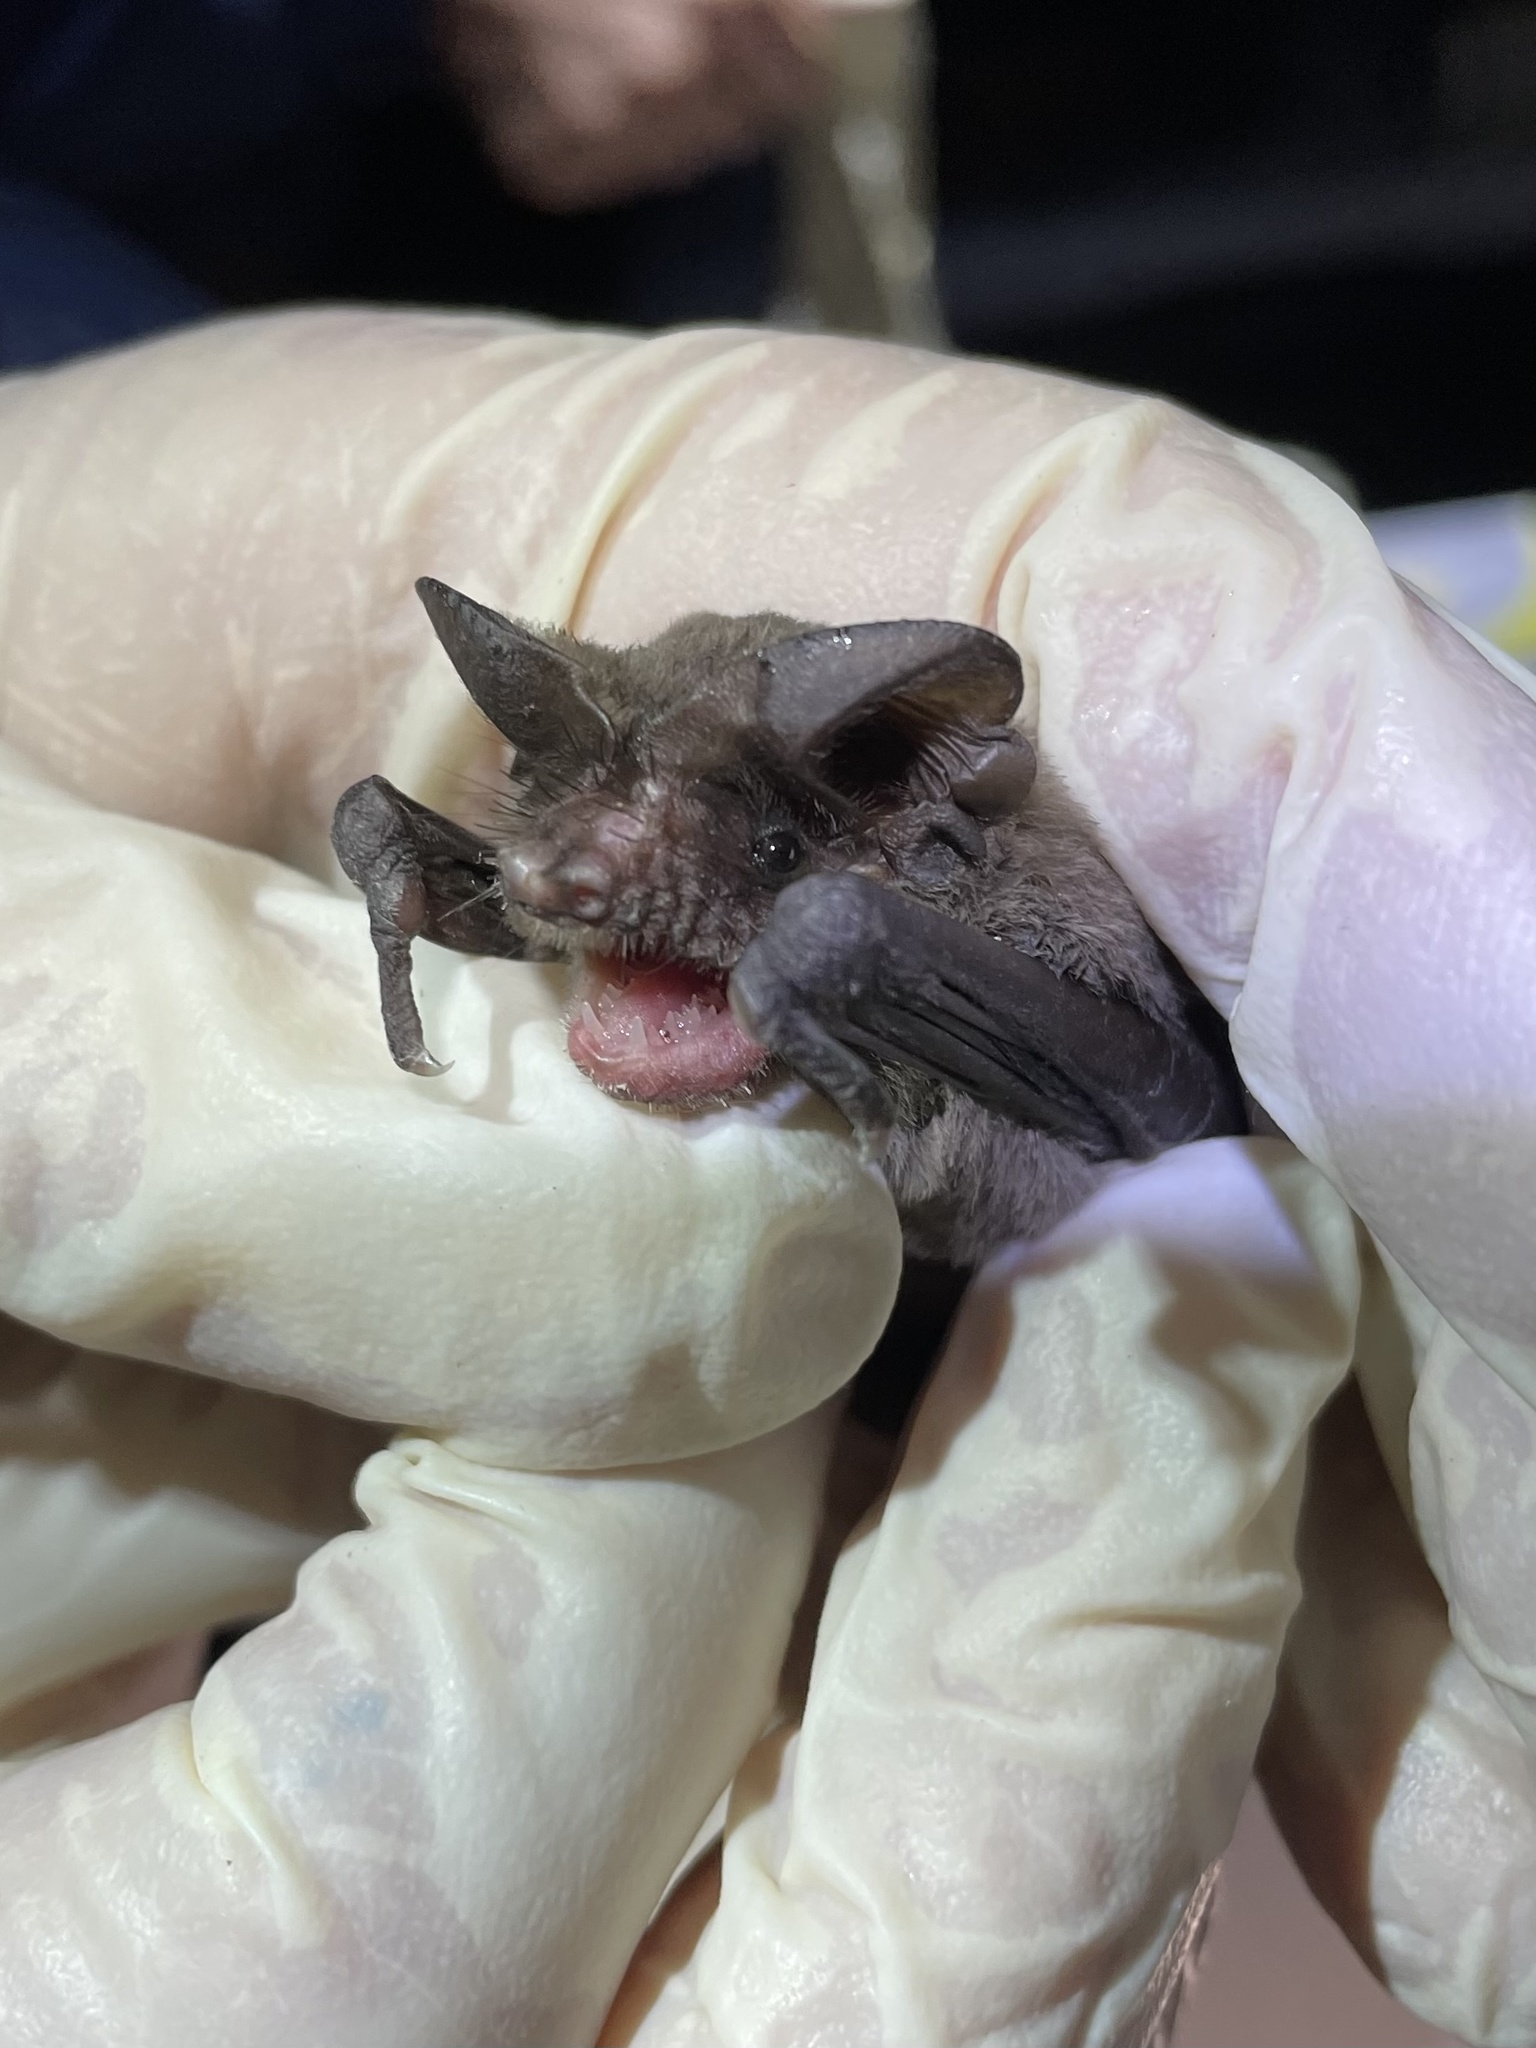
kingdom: Animalia
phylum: Chordata
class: Mammalia
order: Chiroptera
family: Molossidae
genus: Tadarida
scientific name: Tadarida brasiliensis
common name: Mexican free-tailed bat
